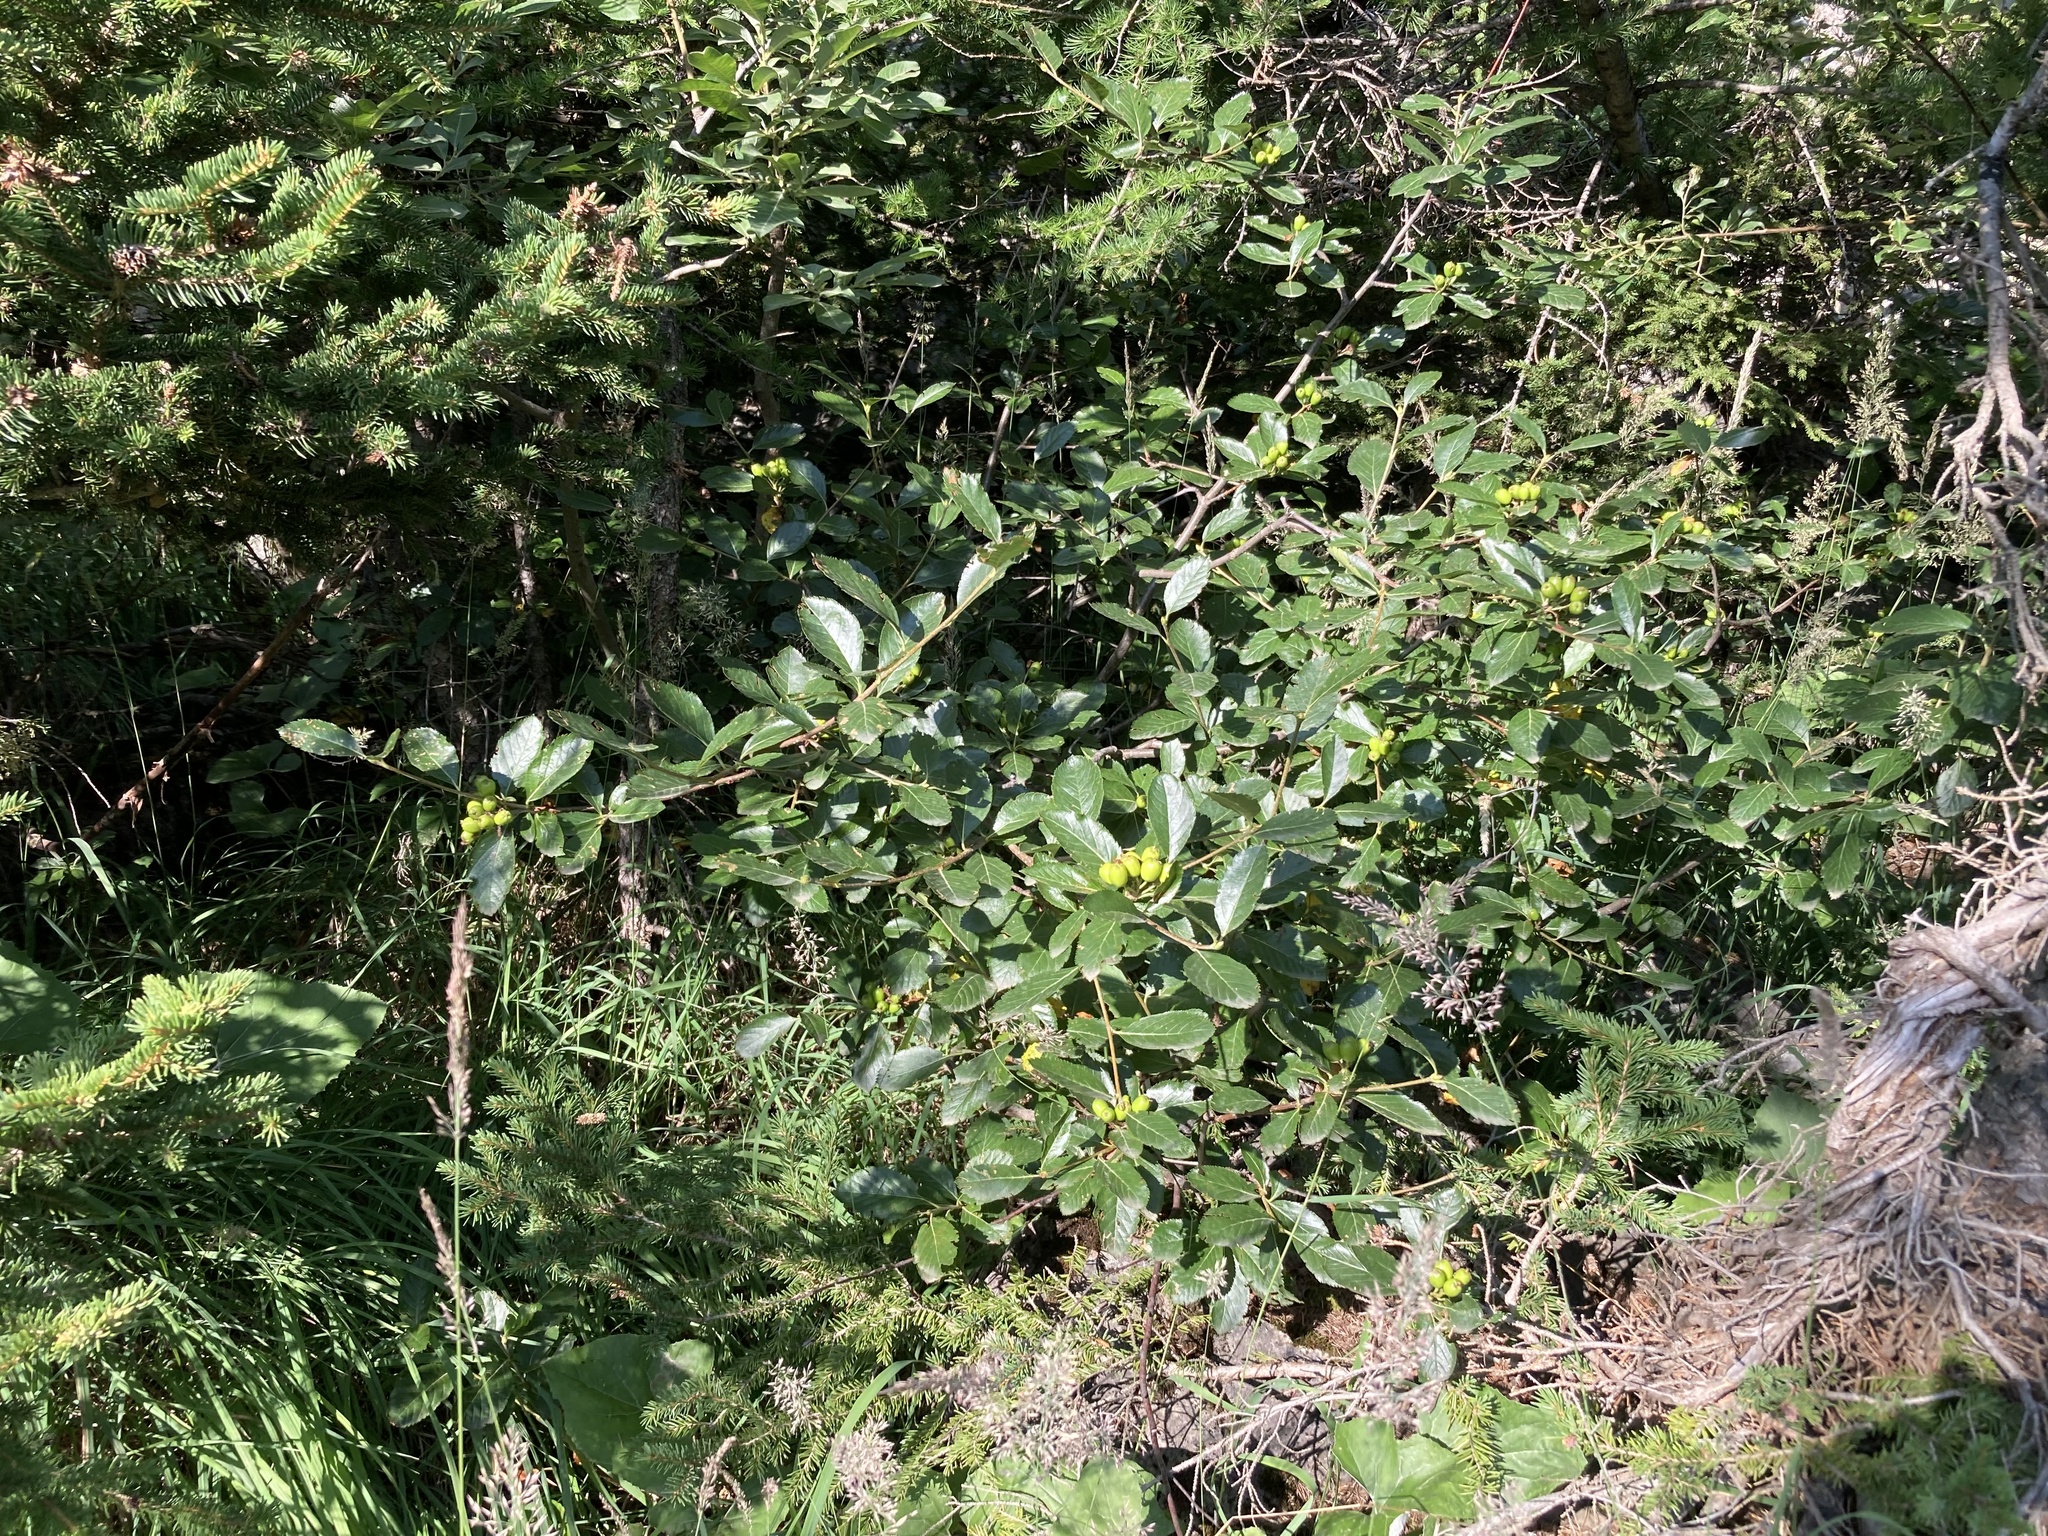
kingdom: Plantae
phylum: Tracheophyta
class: Magnoliopsida
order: Rosales
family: Rosaceae
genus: Chamaemespilus
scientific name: Chamaemespilus alpina
